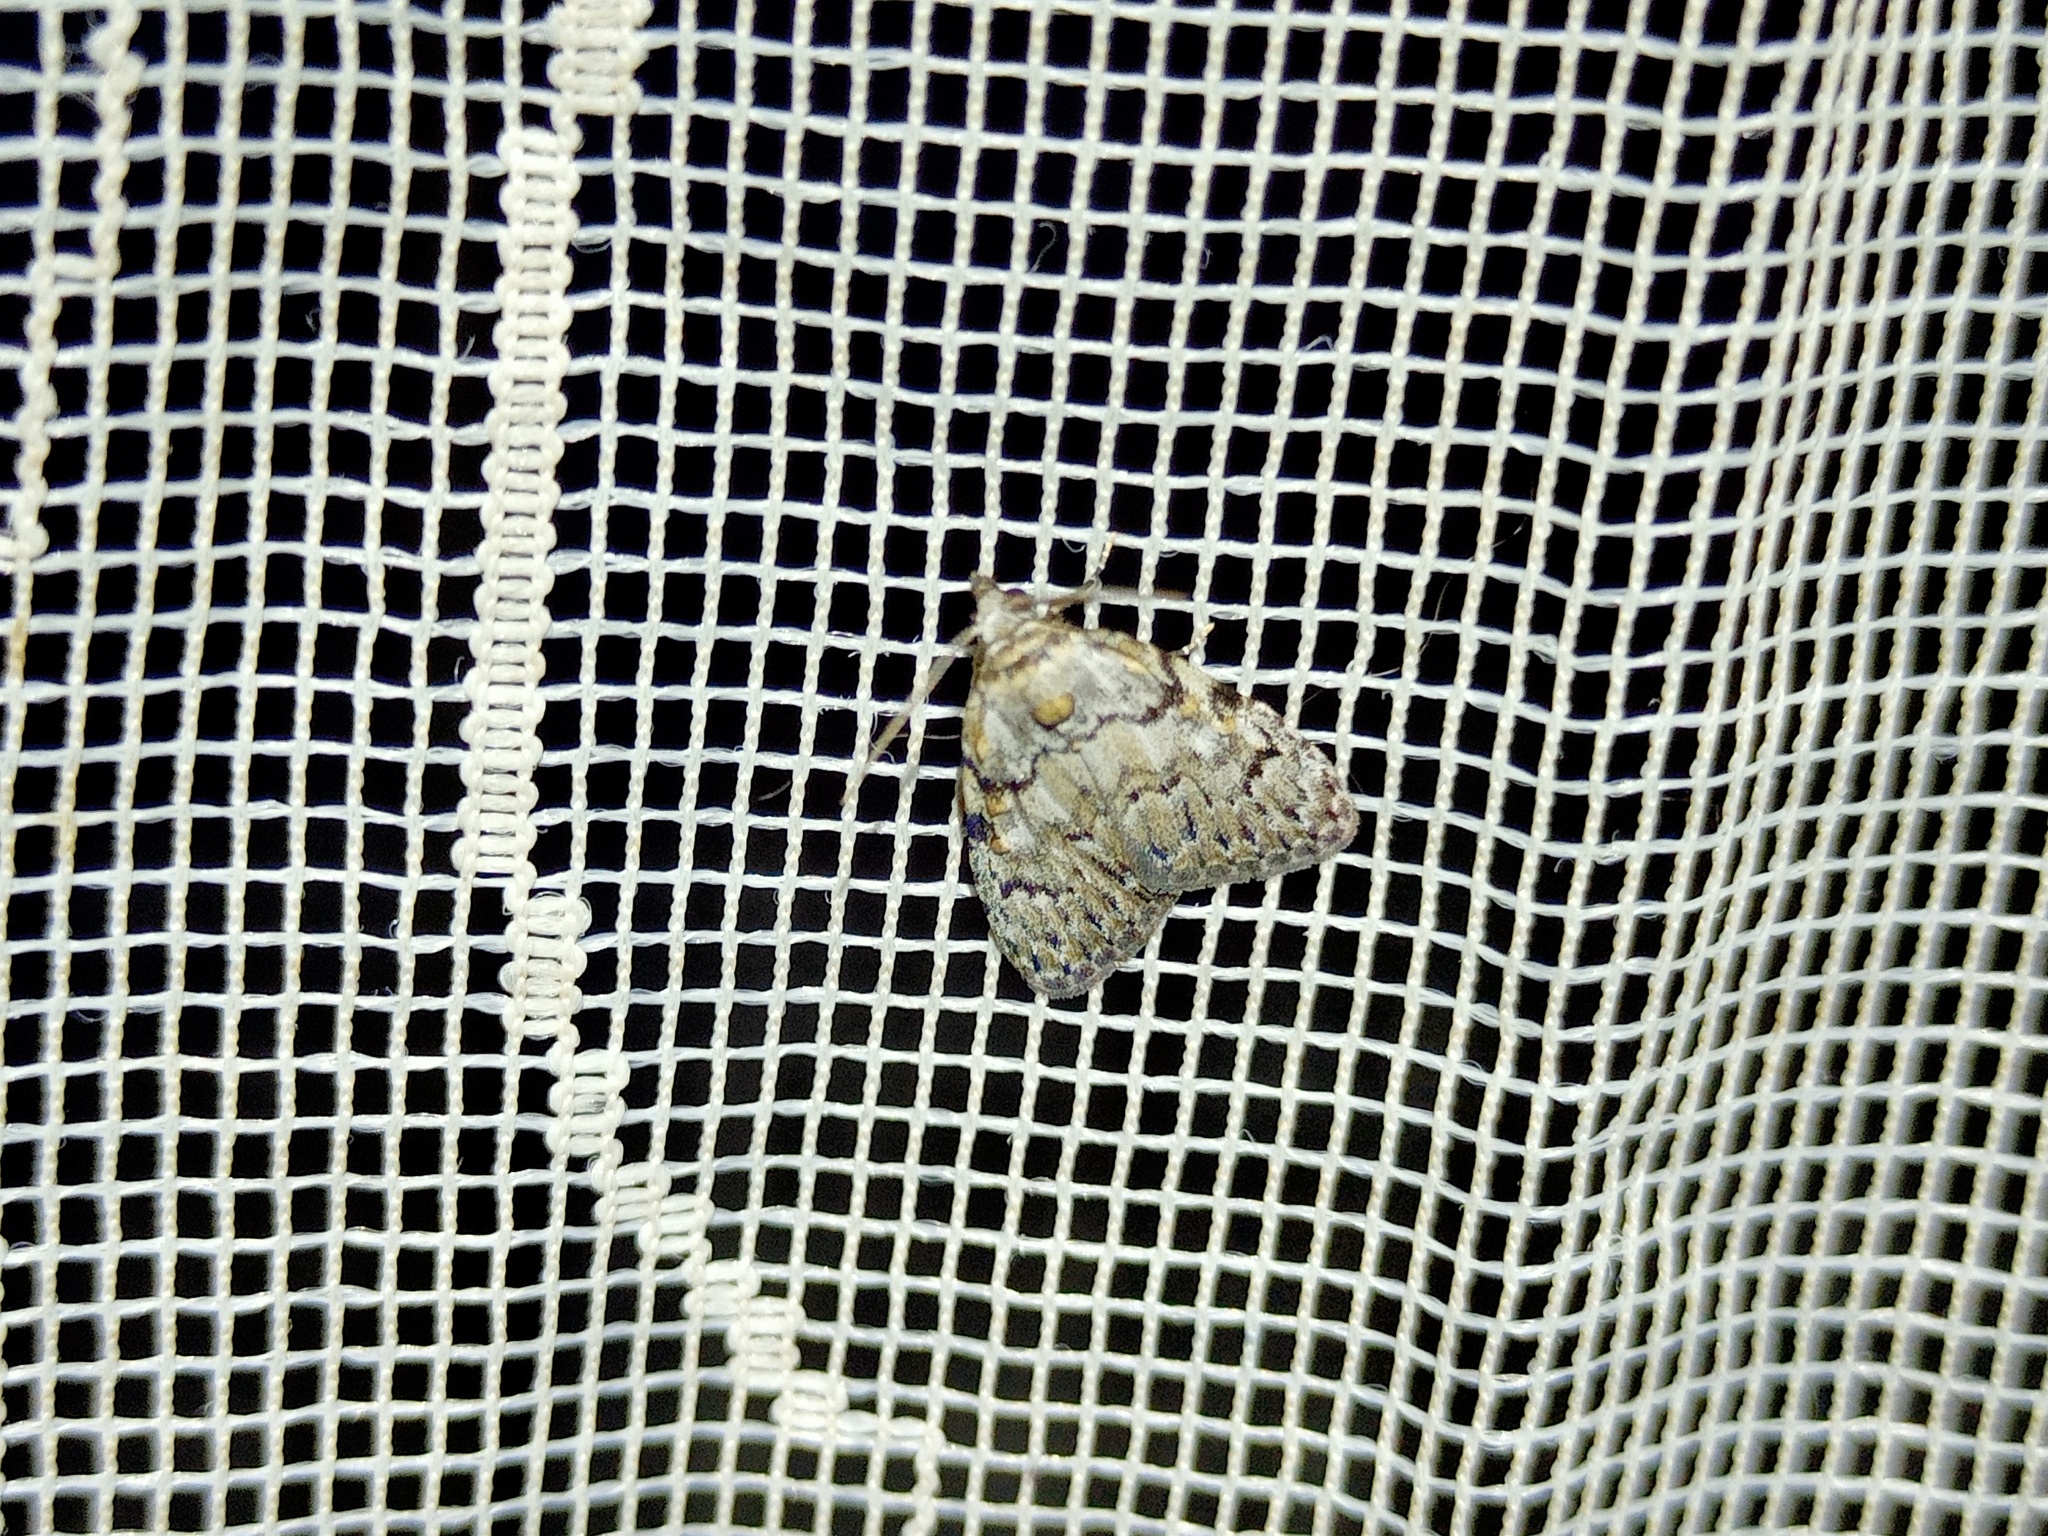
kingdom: Animalia
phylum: Arthropoda
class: Insecta
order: Lepidoptera
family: Nolidae
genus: Meganola
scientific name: Meganola strigula
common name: Small black arches
